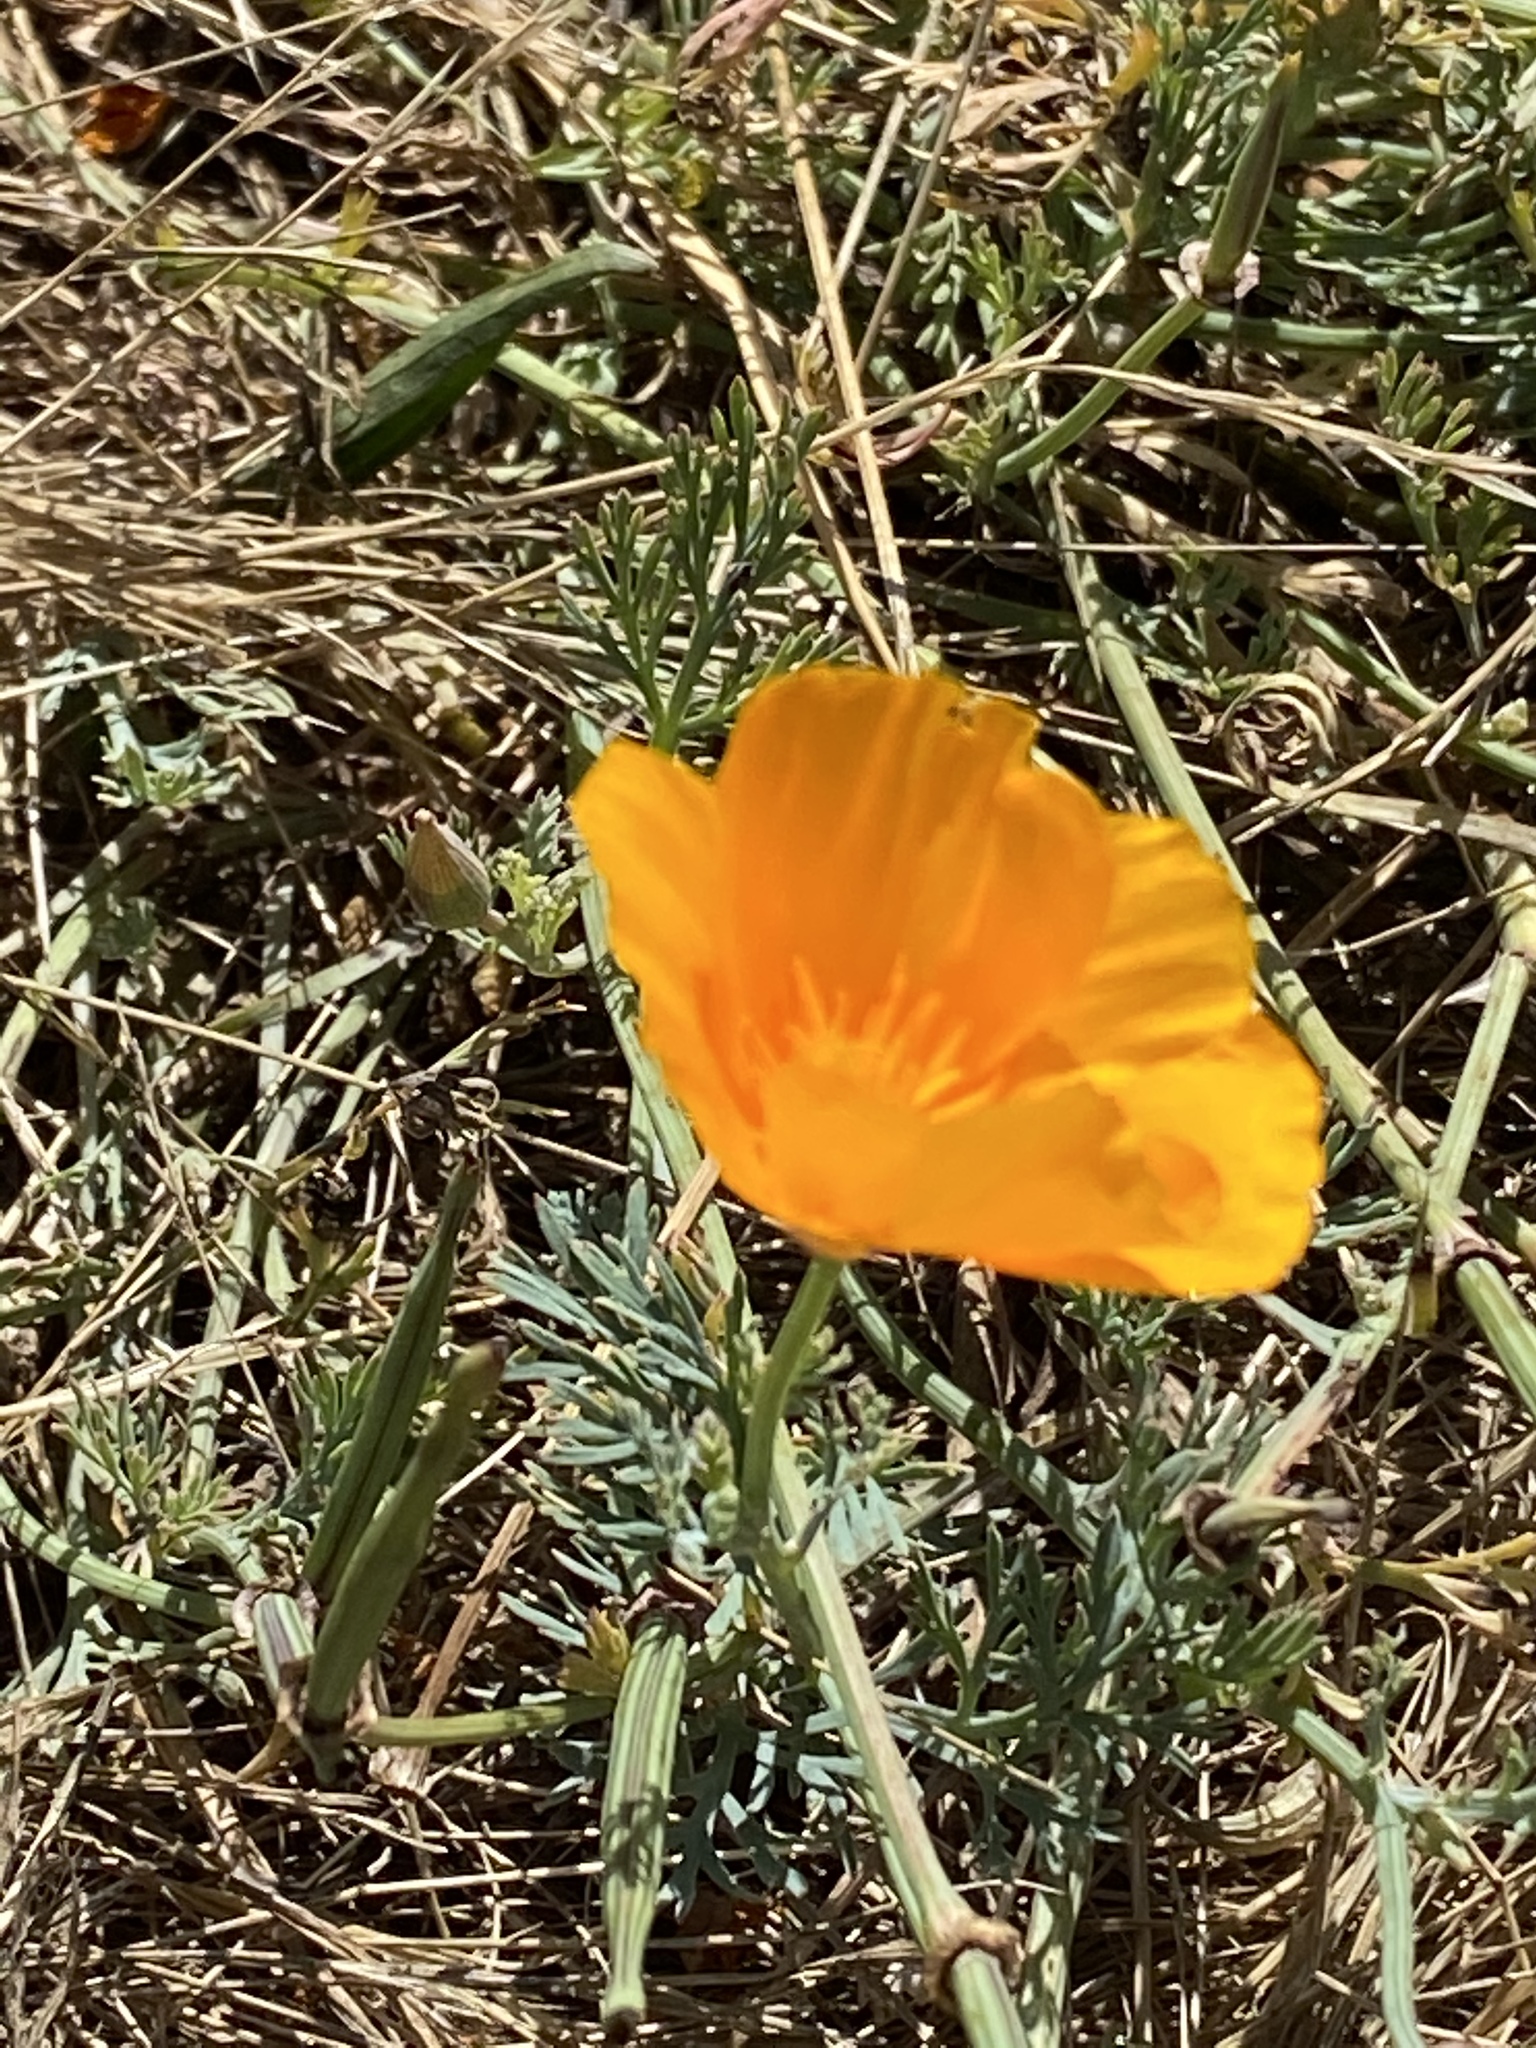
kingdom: Plantae
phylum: Tracheophyta
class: Magnoliopsida
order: Ranunculales
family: Papaveraceae
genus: Eschscholzia
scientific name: Eschscholzia californica
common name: California poppy
